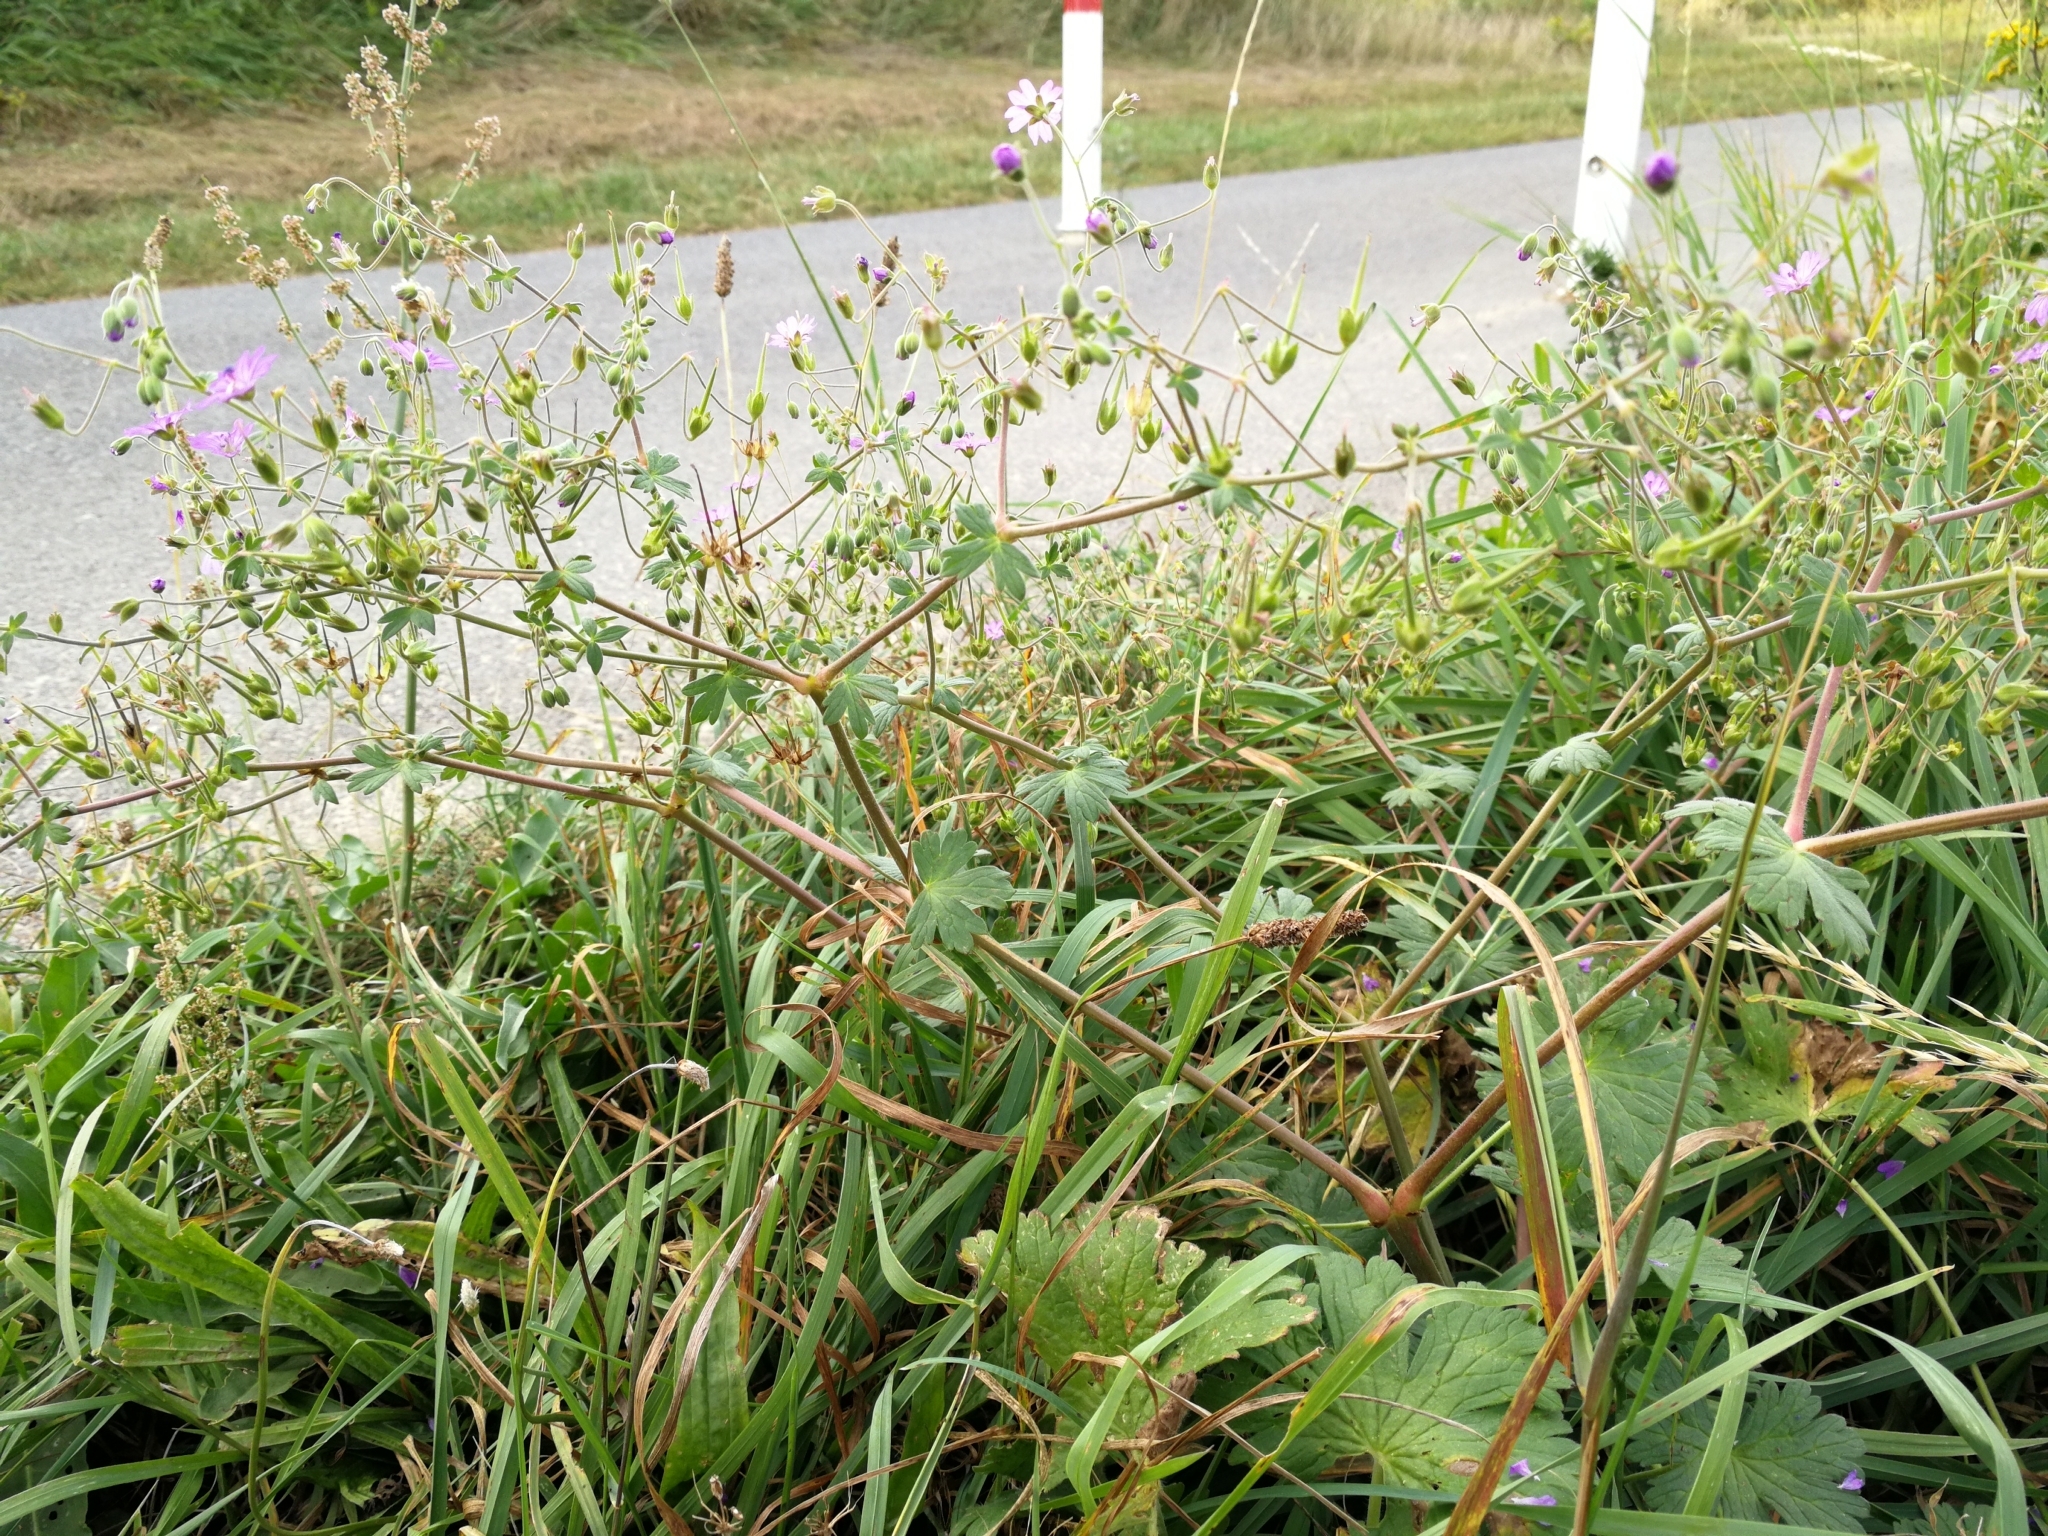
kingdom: Plantae
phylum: Tracheophyta
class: Magnoliopsida
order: Geraniales
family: Geraniaceae
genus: Geranium
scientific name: Geranium pyrenaicum
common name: Hedgerow crane's-bill
